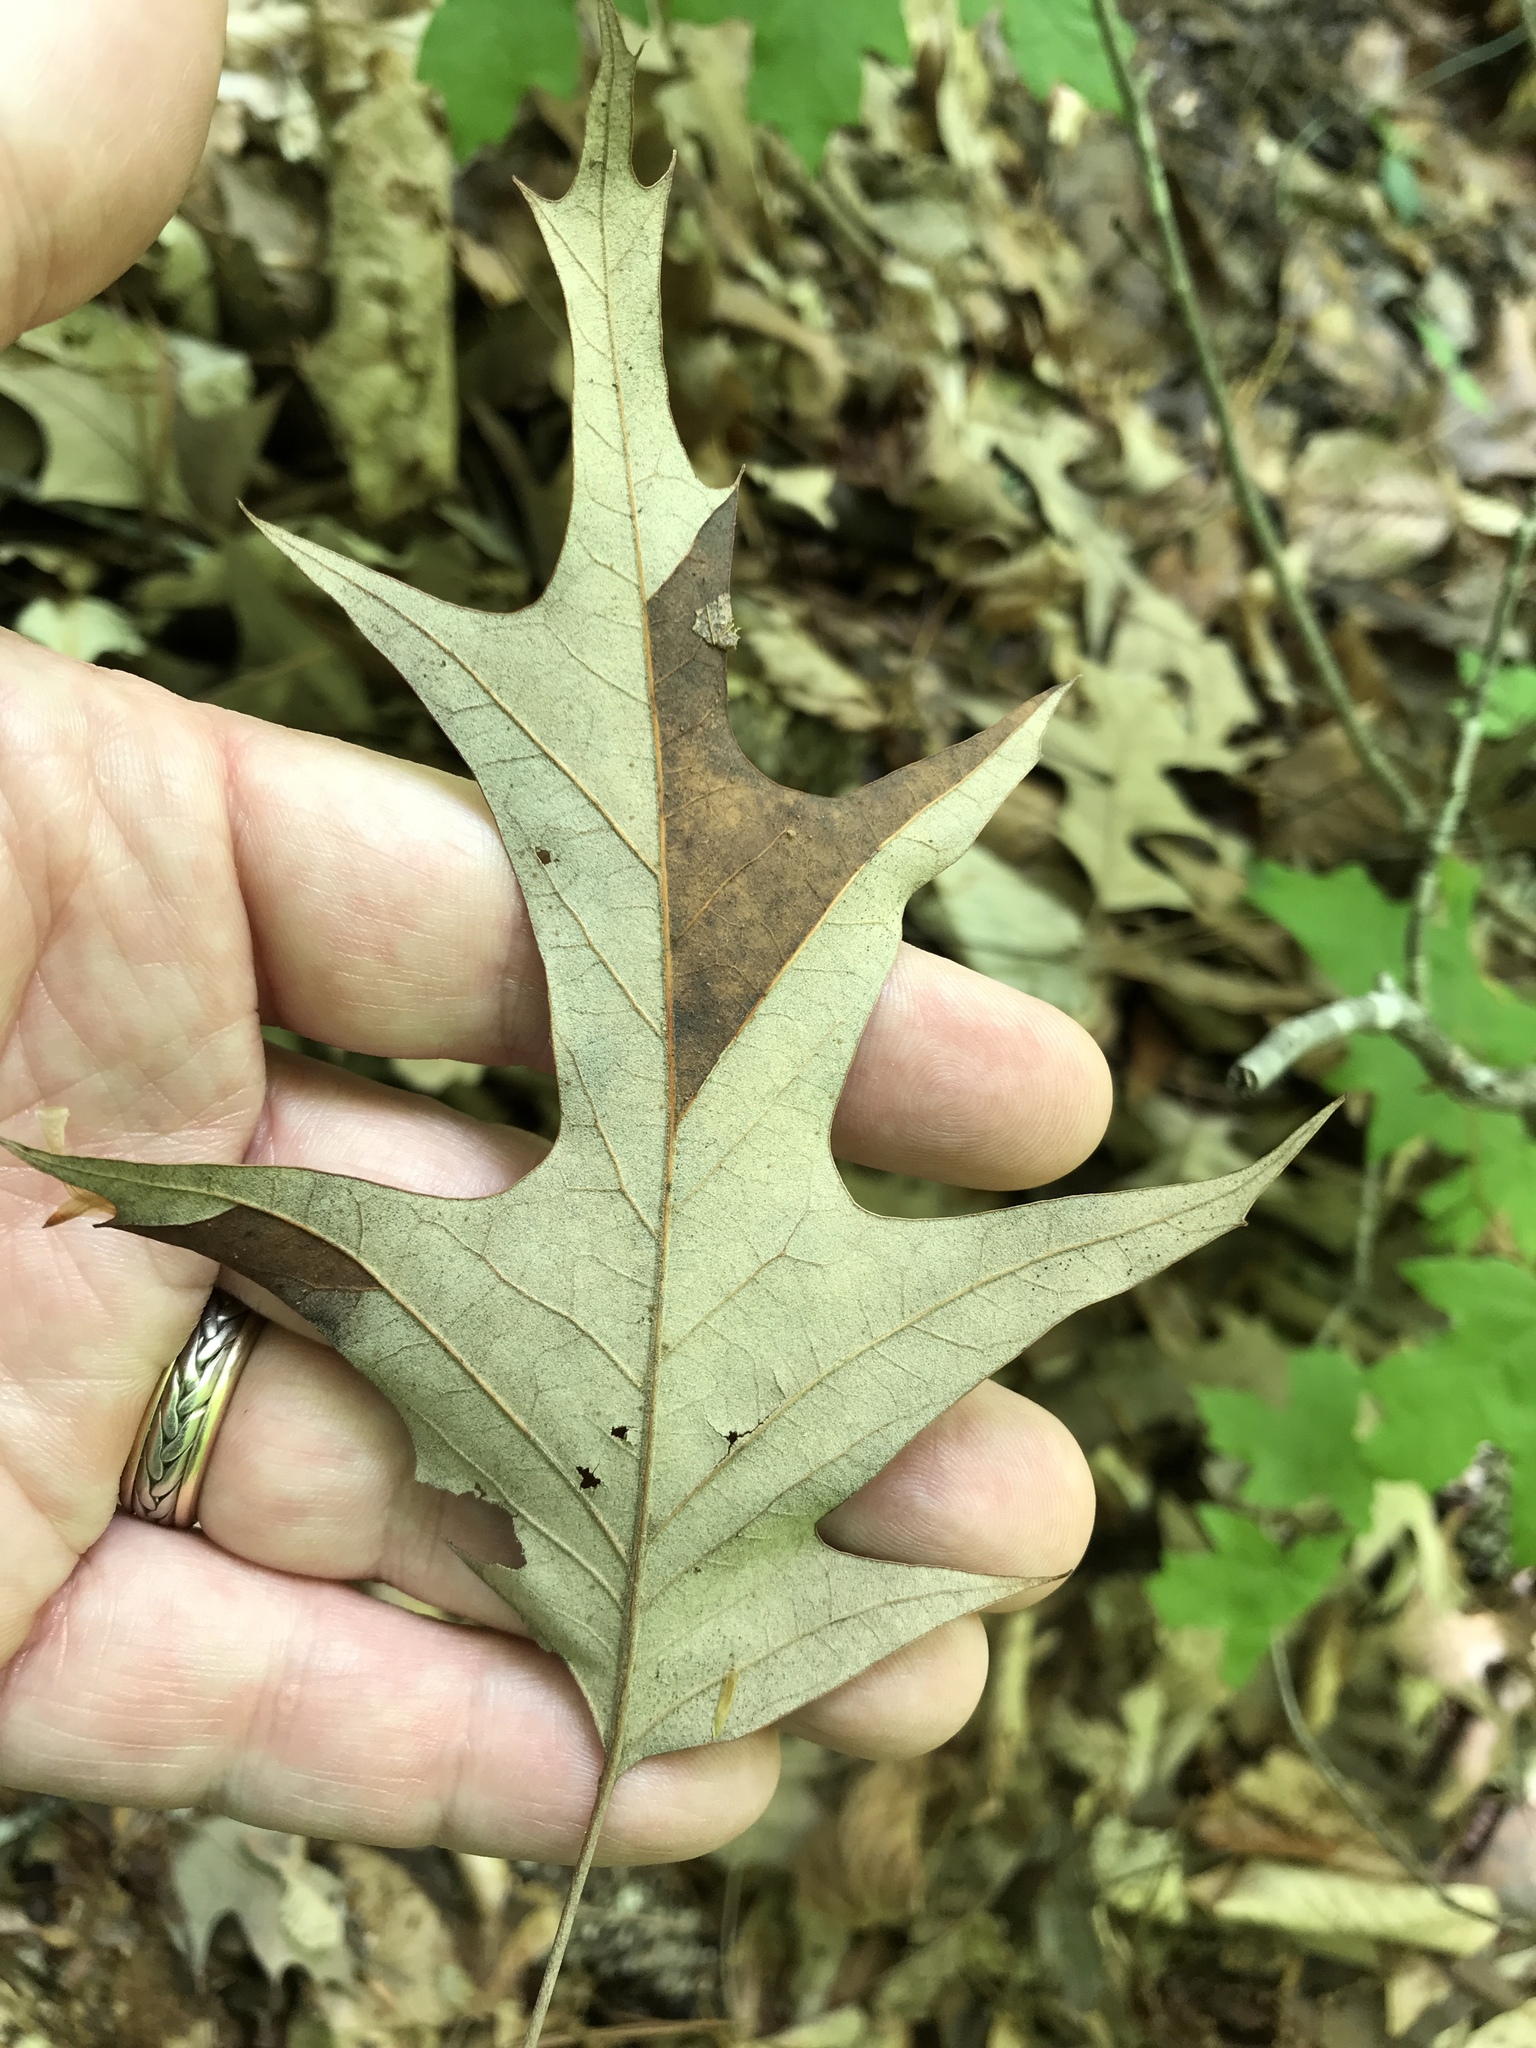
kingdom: Plantae
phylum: Tracheophyta
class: Magnoliopsida
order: Fagales
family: Fagaceae
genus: Quercus
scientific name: Quercus pagoda
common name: Cherrybark oak
